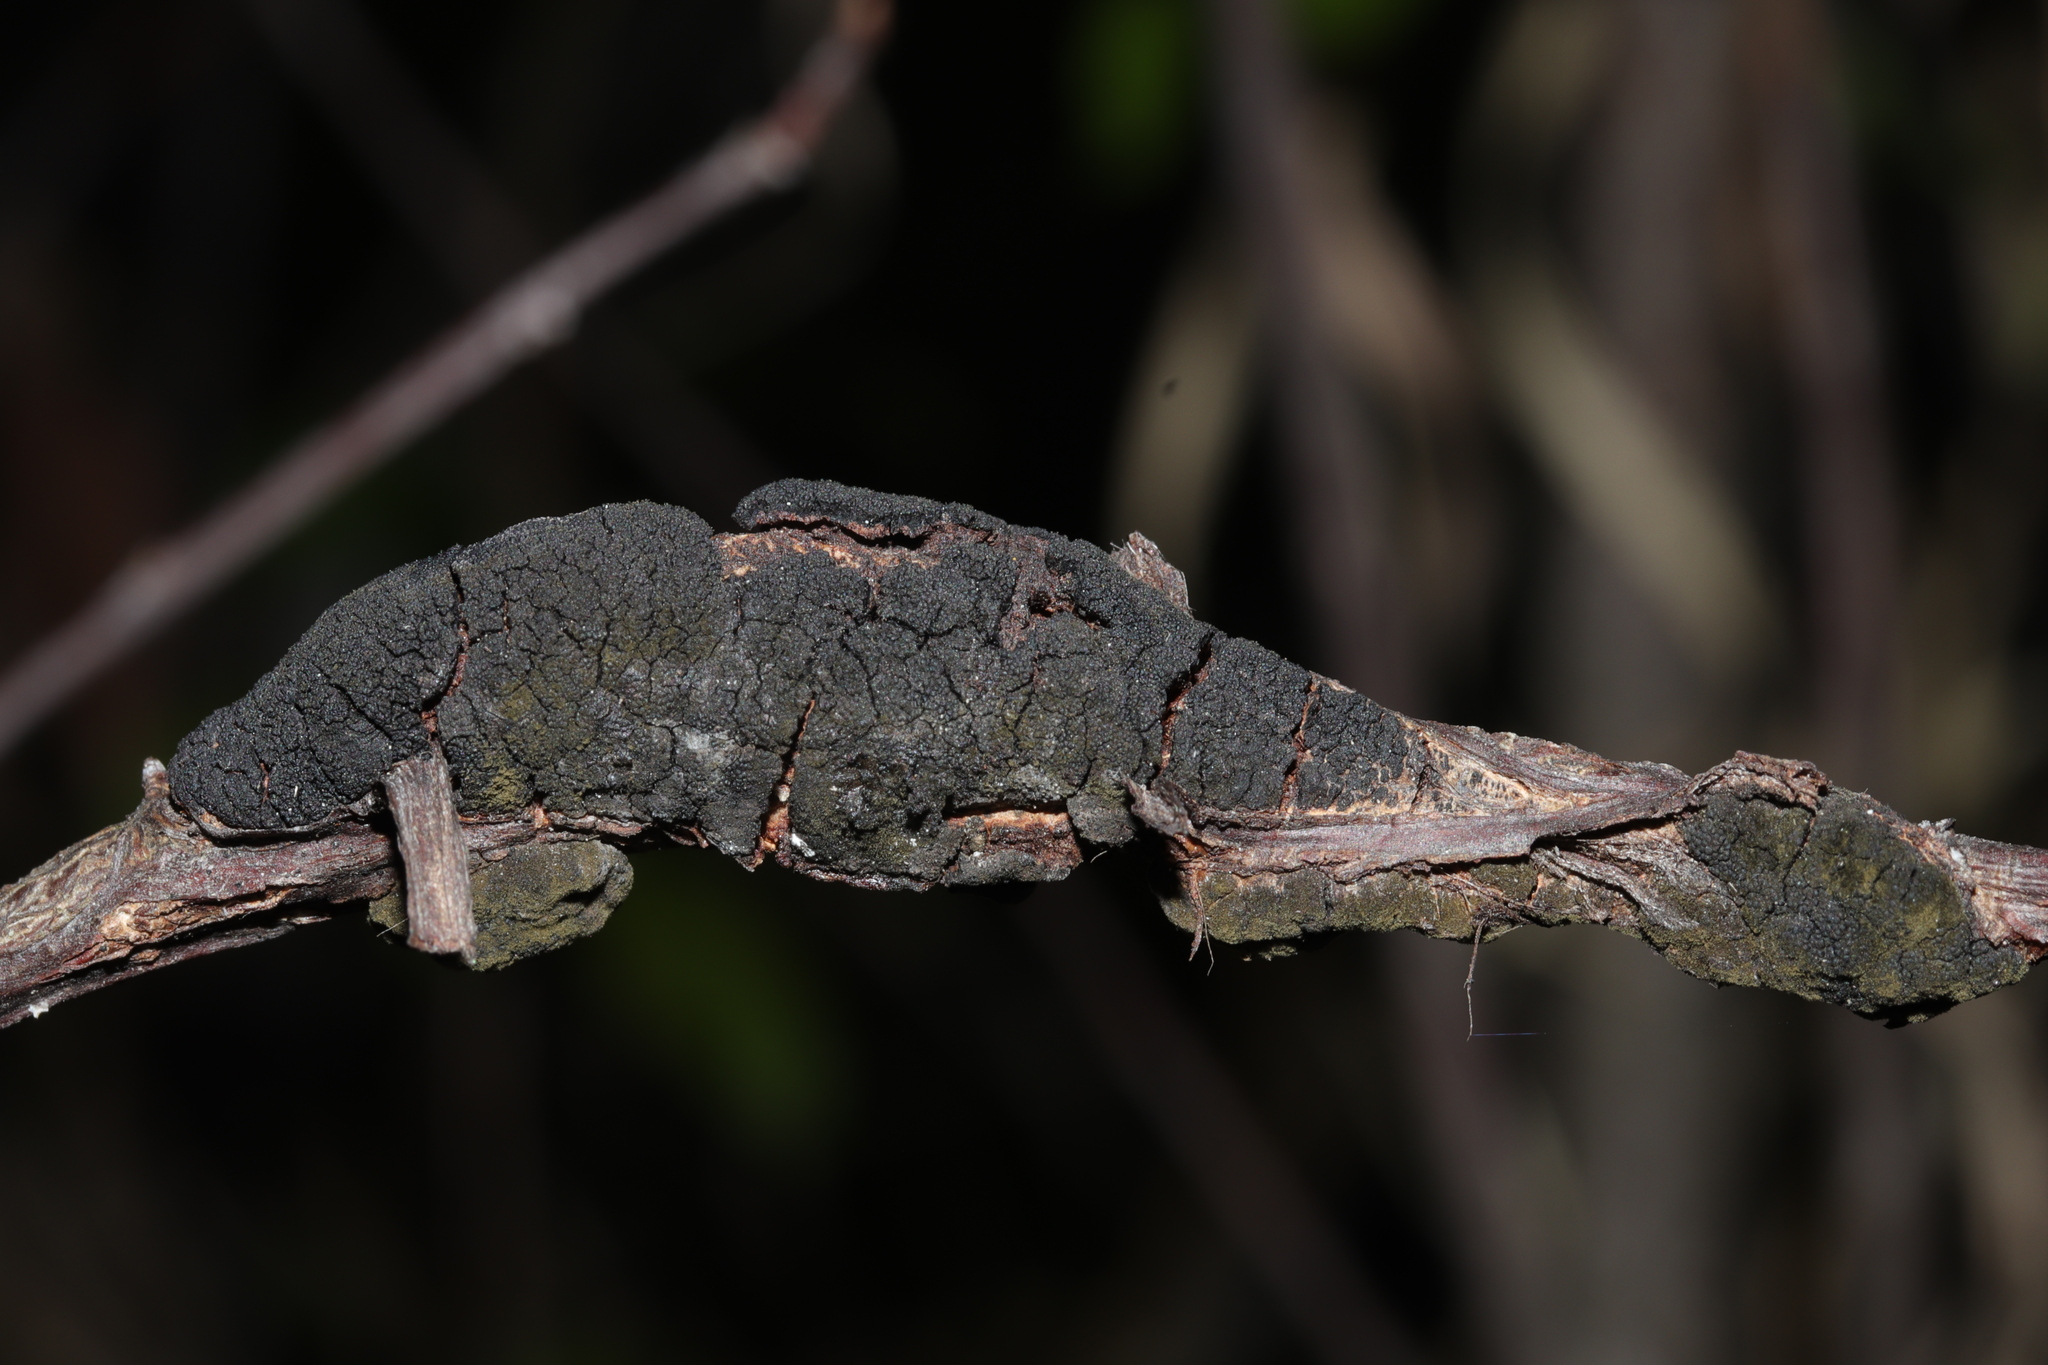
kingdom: Fungi
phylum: Ascomycota
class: Dothideomycetes
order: Venturiales
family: Venturiaceae
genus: Apiosporina
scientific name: Apiosporina morbosa
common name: Black knot
